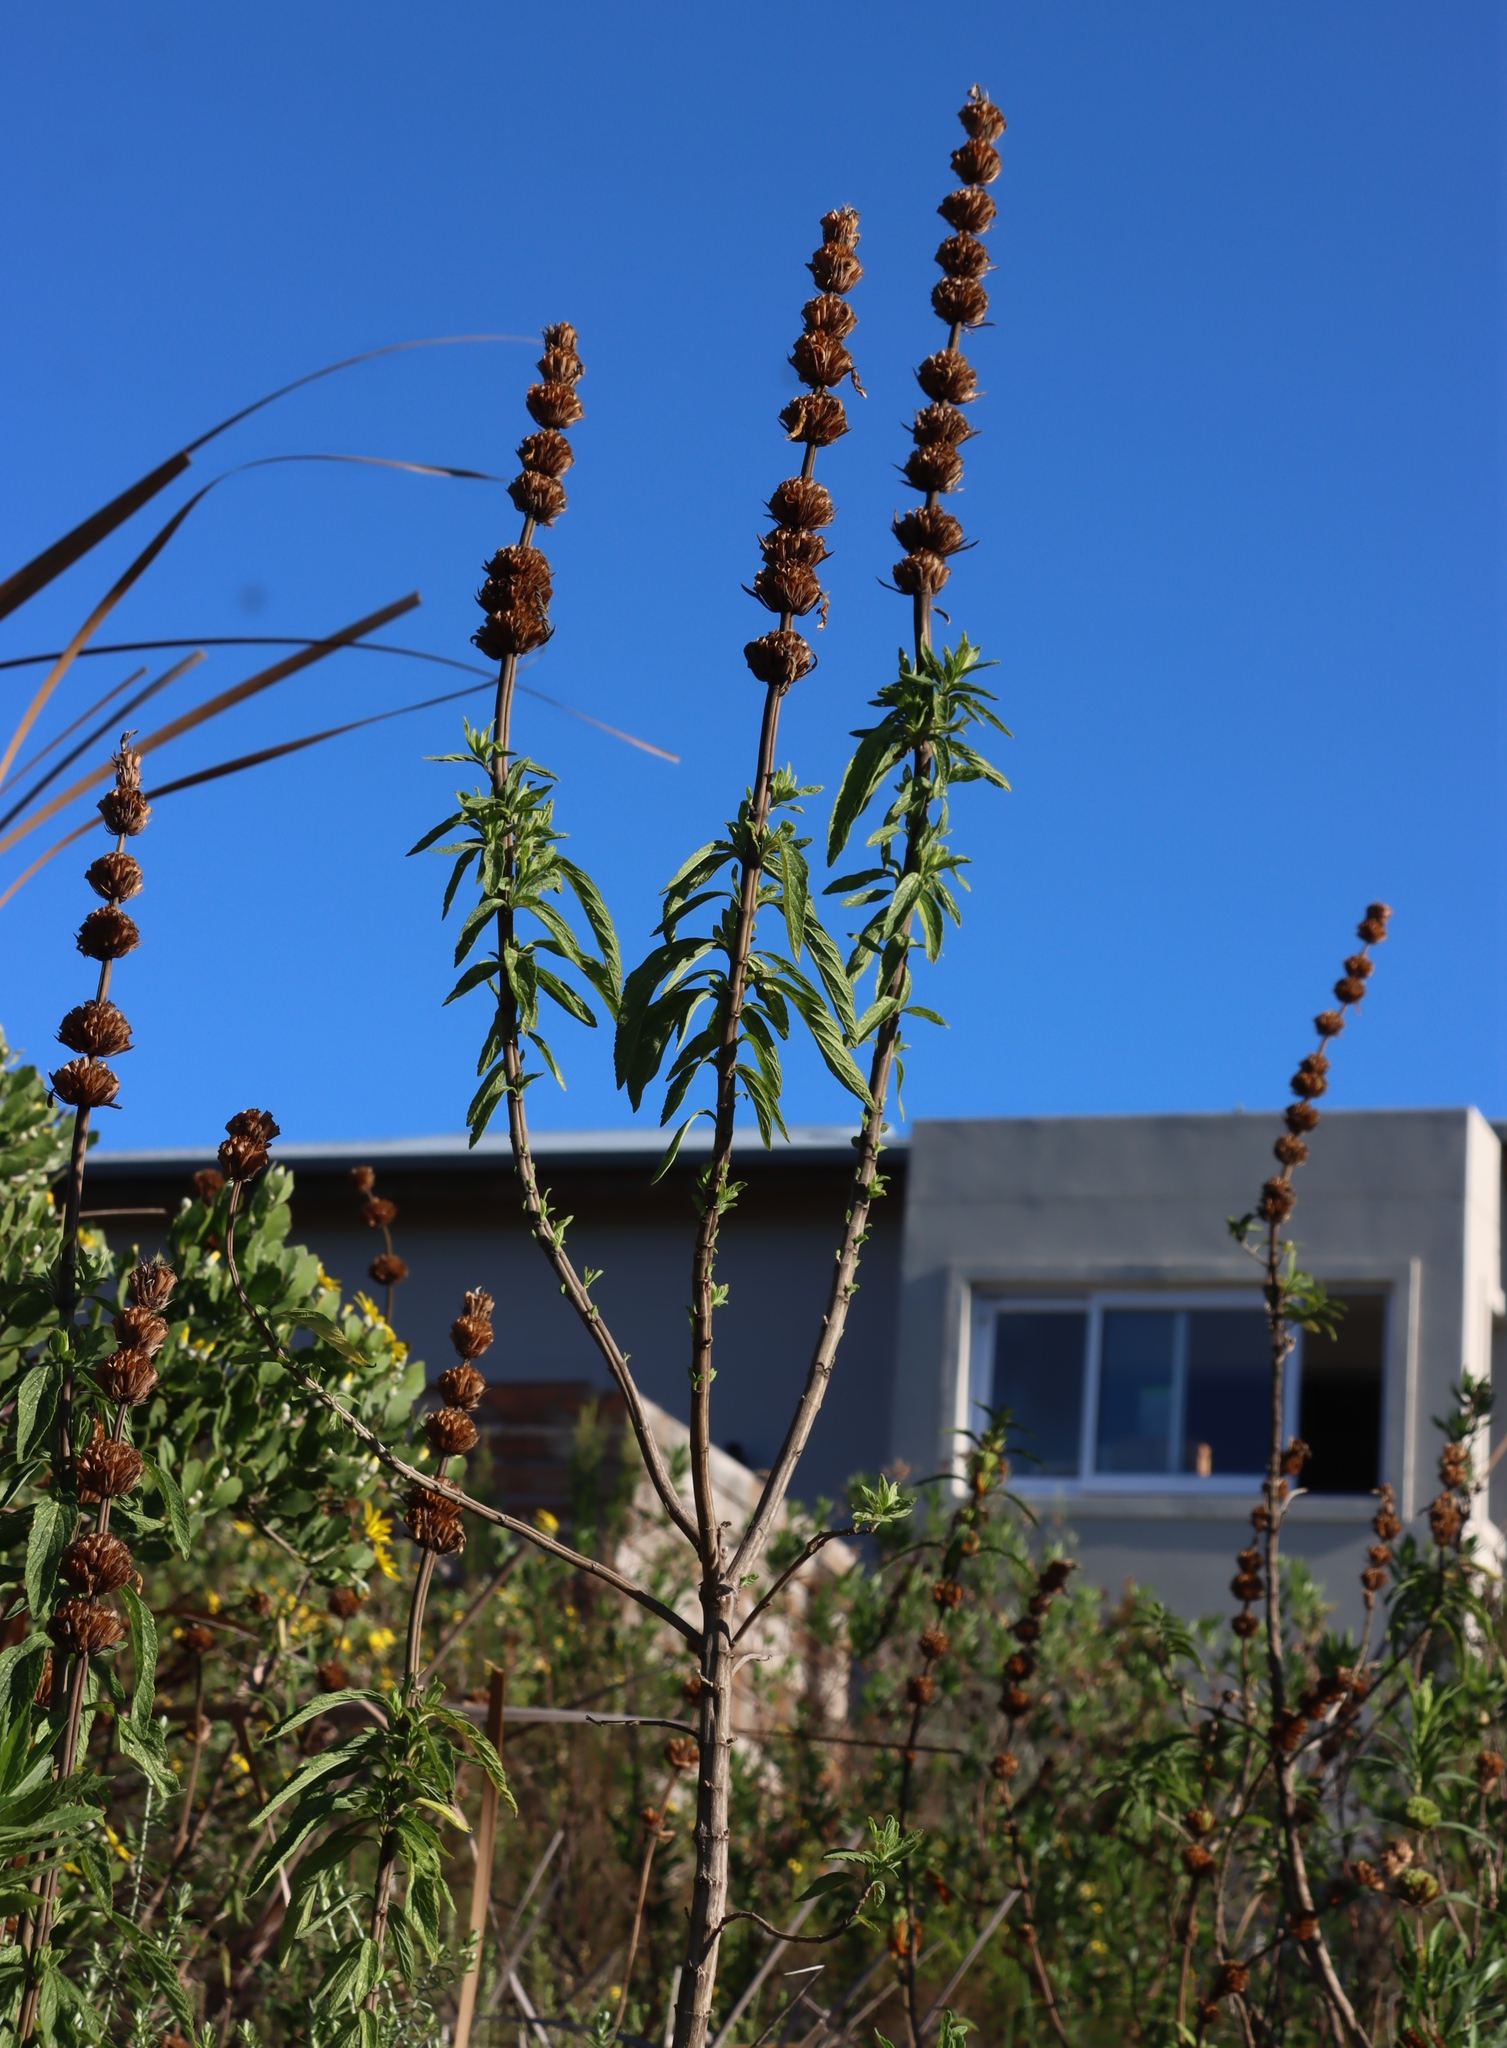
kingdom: Plantae
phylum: Tracheophyta
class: Magnoliopsida
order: Lamiales
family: Lamiaceae
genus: Leonotis
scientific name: Leonotis leonurus
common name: Lion's ear
